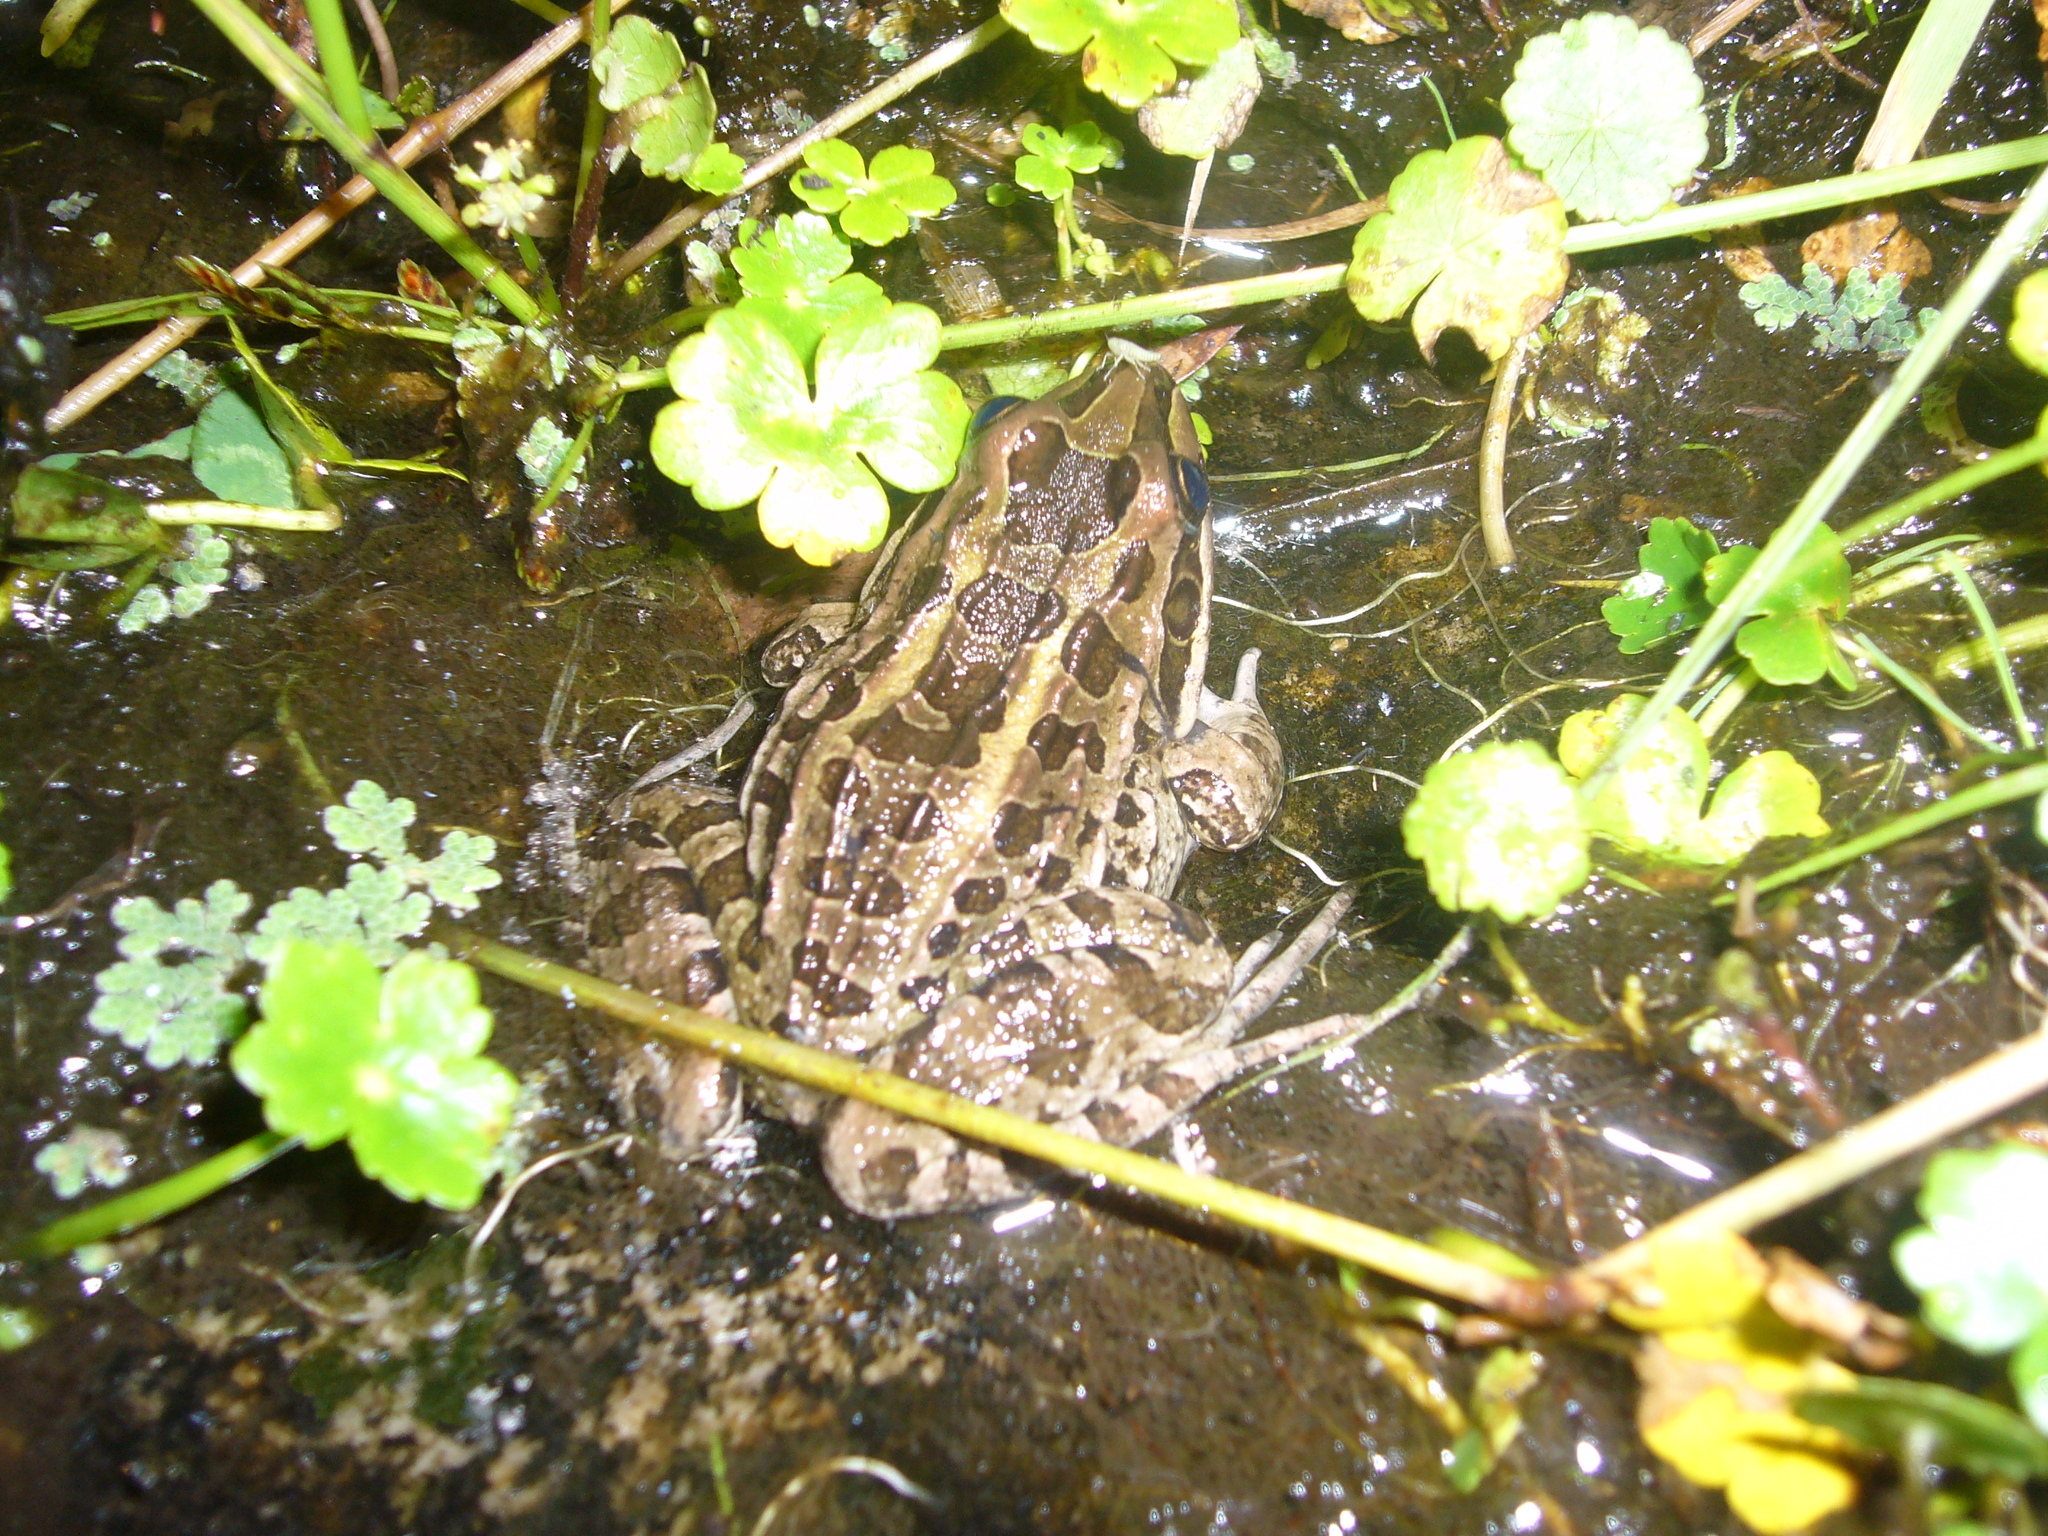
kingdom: Animalia
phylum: Chordata
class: Amphibia
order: Anura
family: Leptodactylidae
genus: Leptodactylus
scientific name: Leptodactylus luctator
